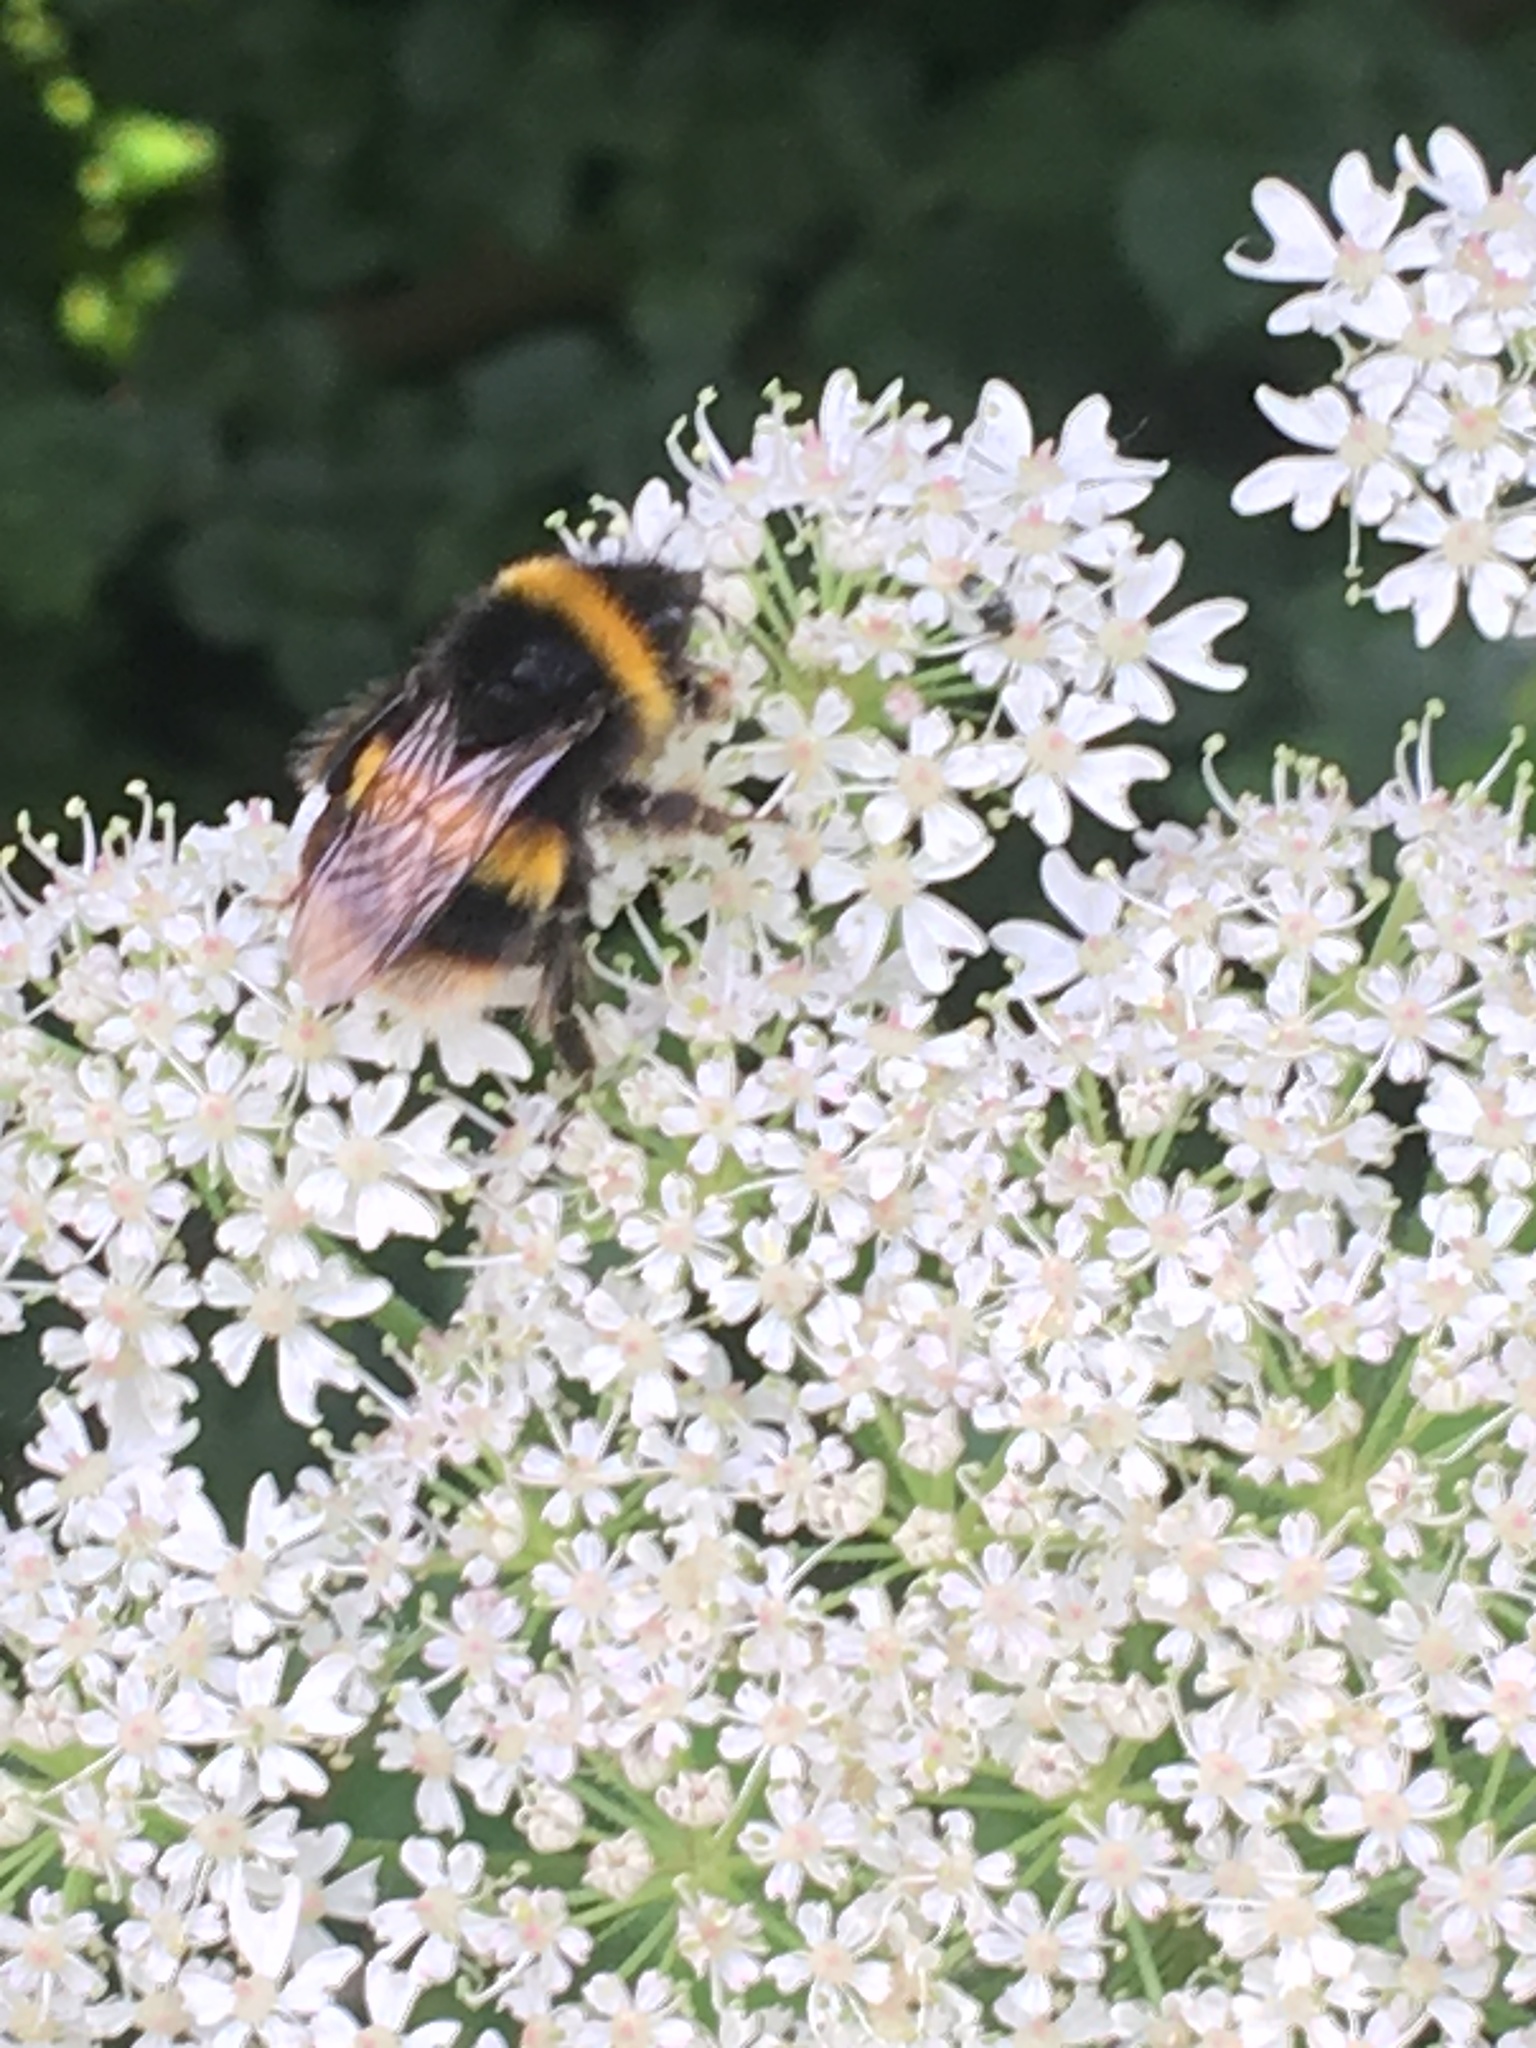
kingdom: Animalia
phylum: Arthropoda
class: Insecta
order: Hymenoptera
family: Apidae
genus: Bombus
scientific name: Bombus terrestris
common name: Buff-tailed bumblebee
